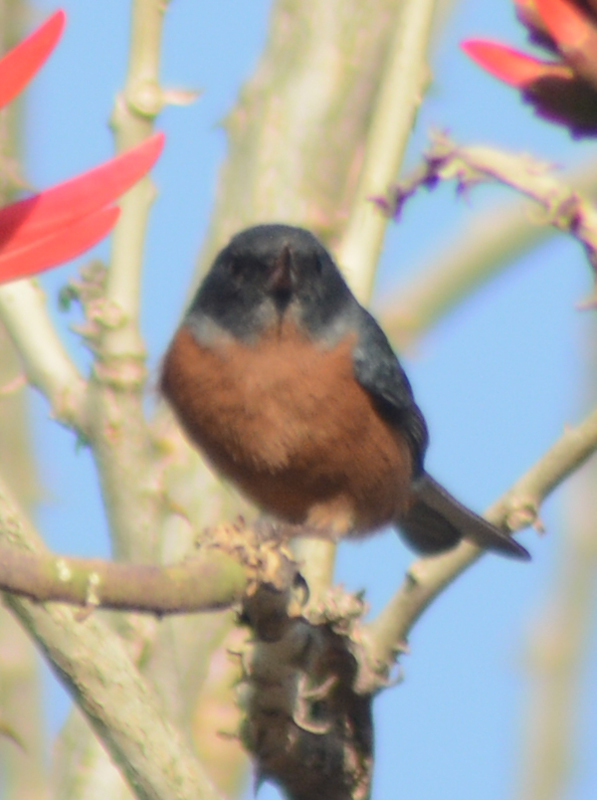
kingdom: Animalia
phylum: Chordata
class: Aves
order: Passeriformes
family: Thraupidae
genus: Diglossa
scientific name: Diglossa baritula
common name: Cinnamon-bellied flowerpiercer
